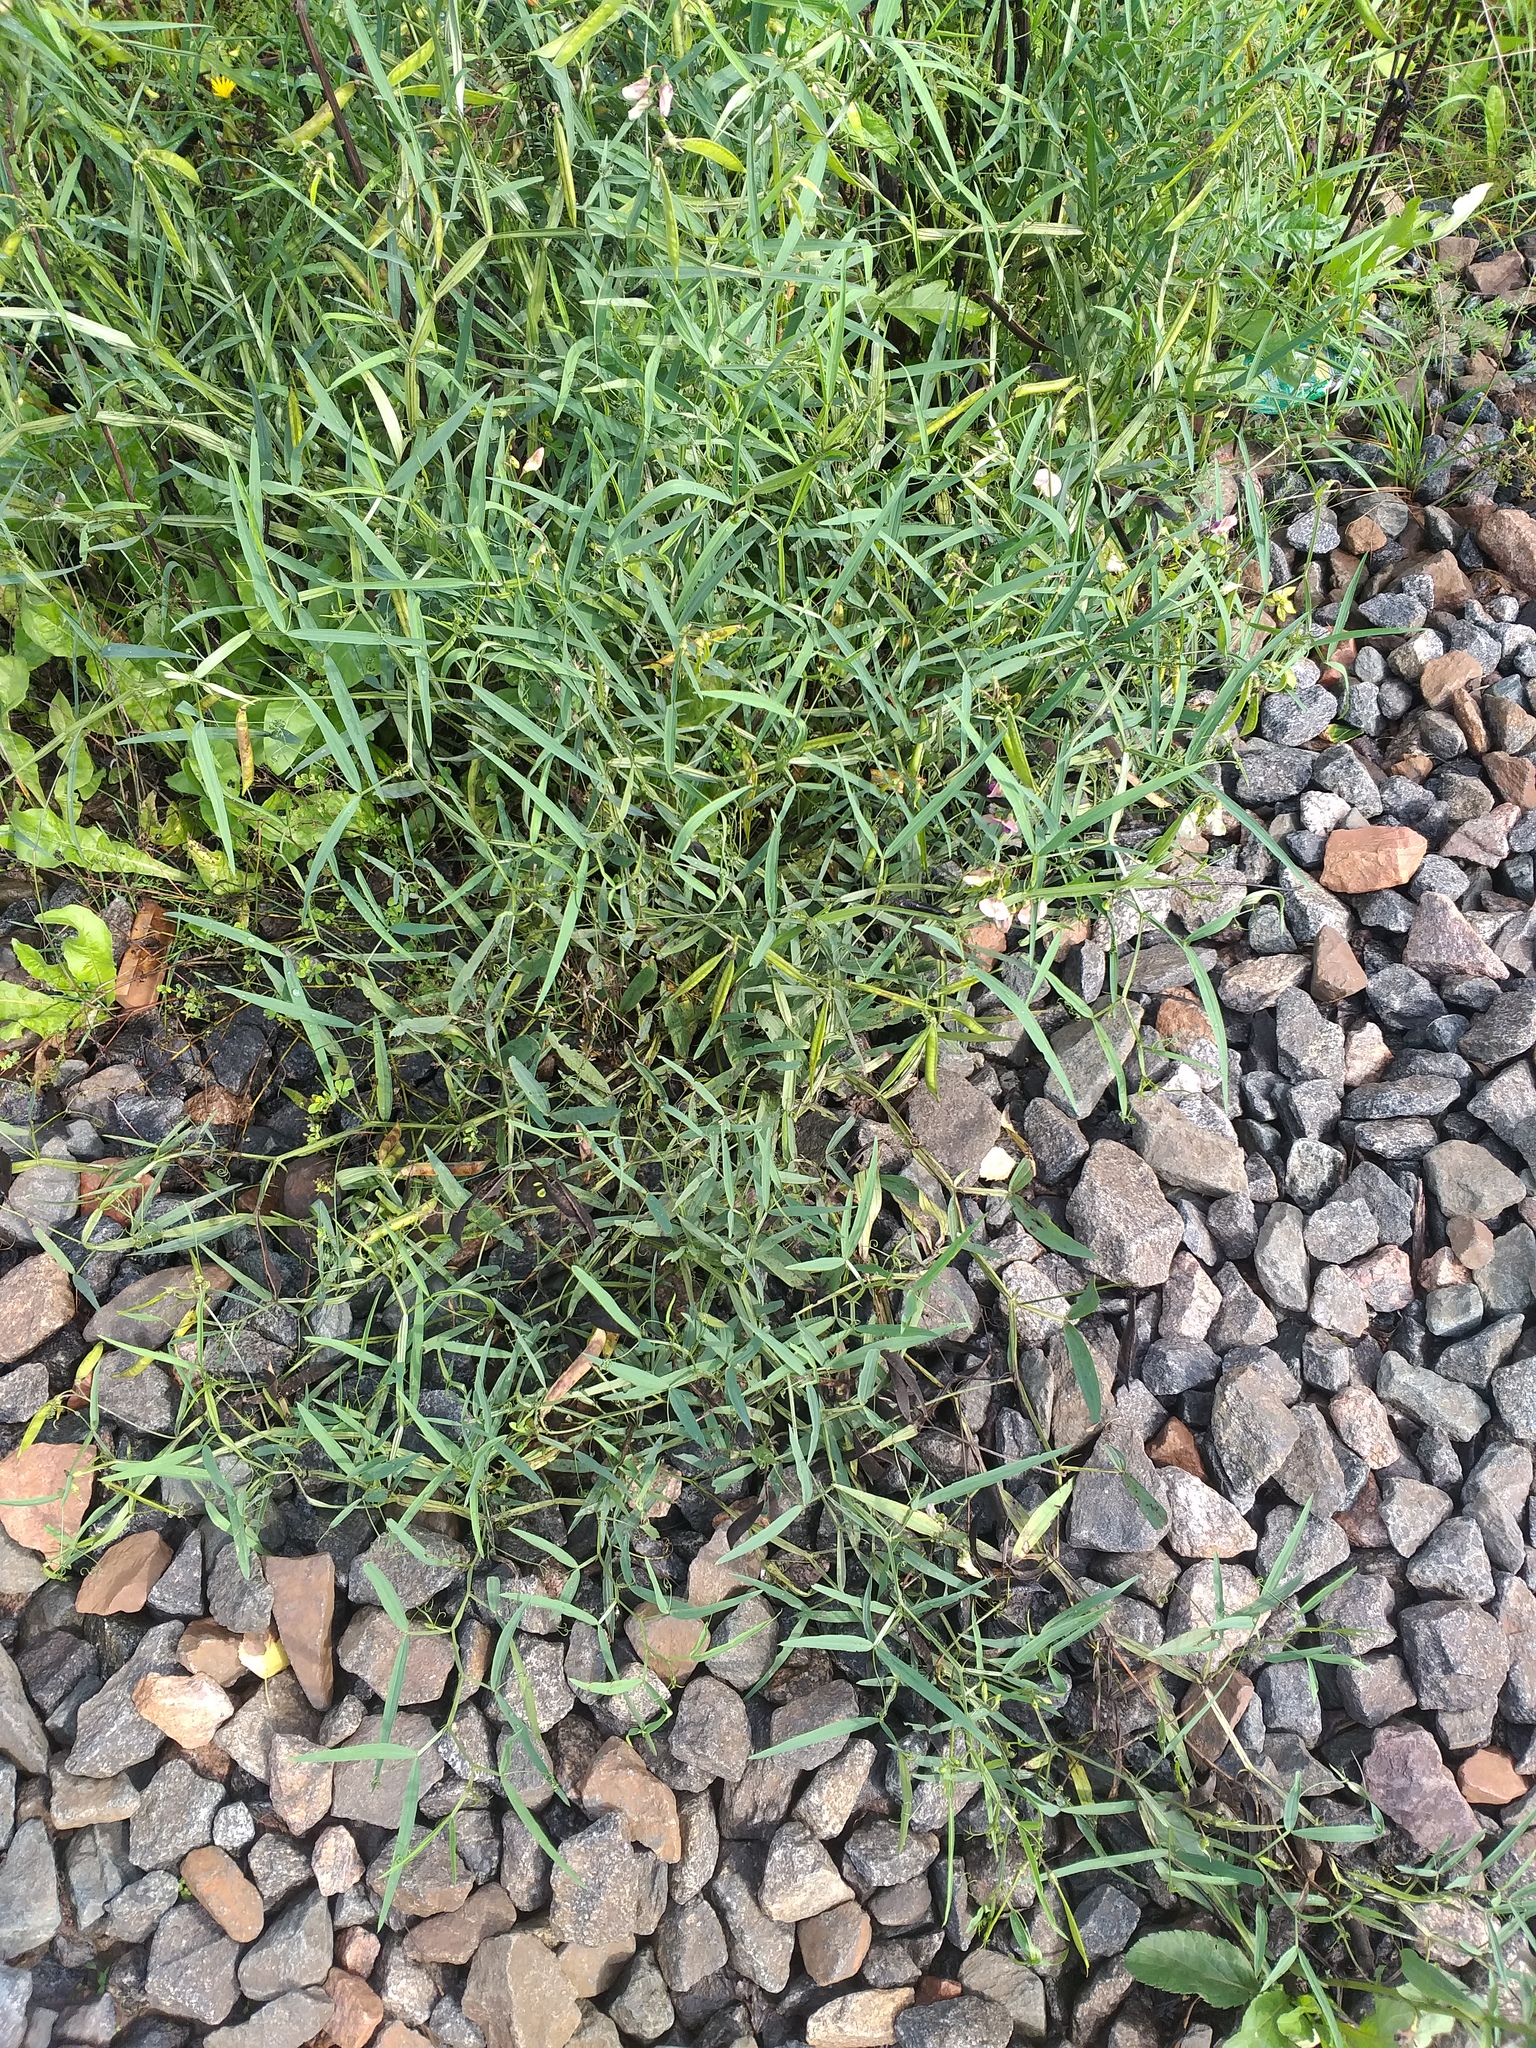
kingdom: Plantae
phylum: Tracheophyta
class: Magnoliopsida
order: Fabales
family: Fabaceae
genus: Lathyrus
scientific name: Lathyrus sylvestris
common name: Flat pea
